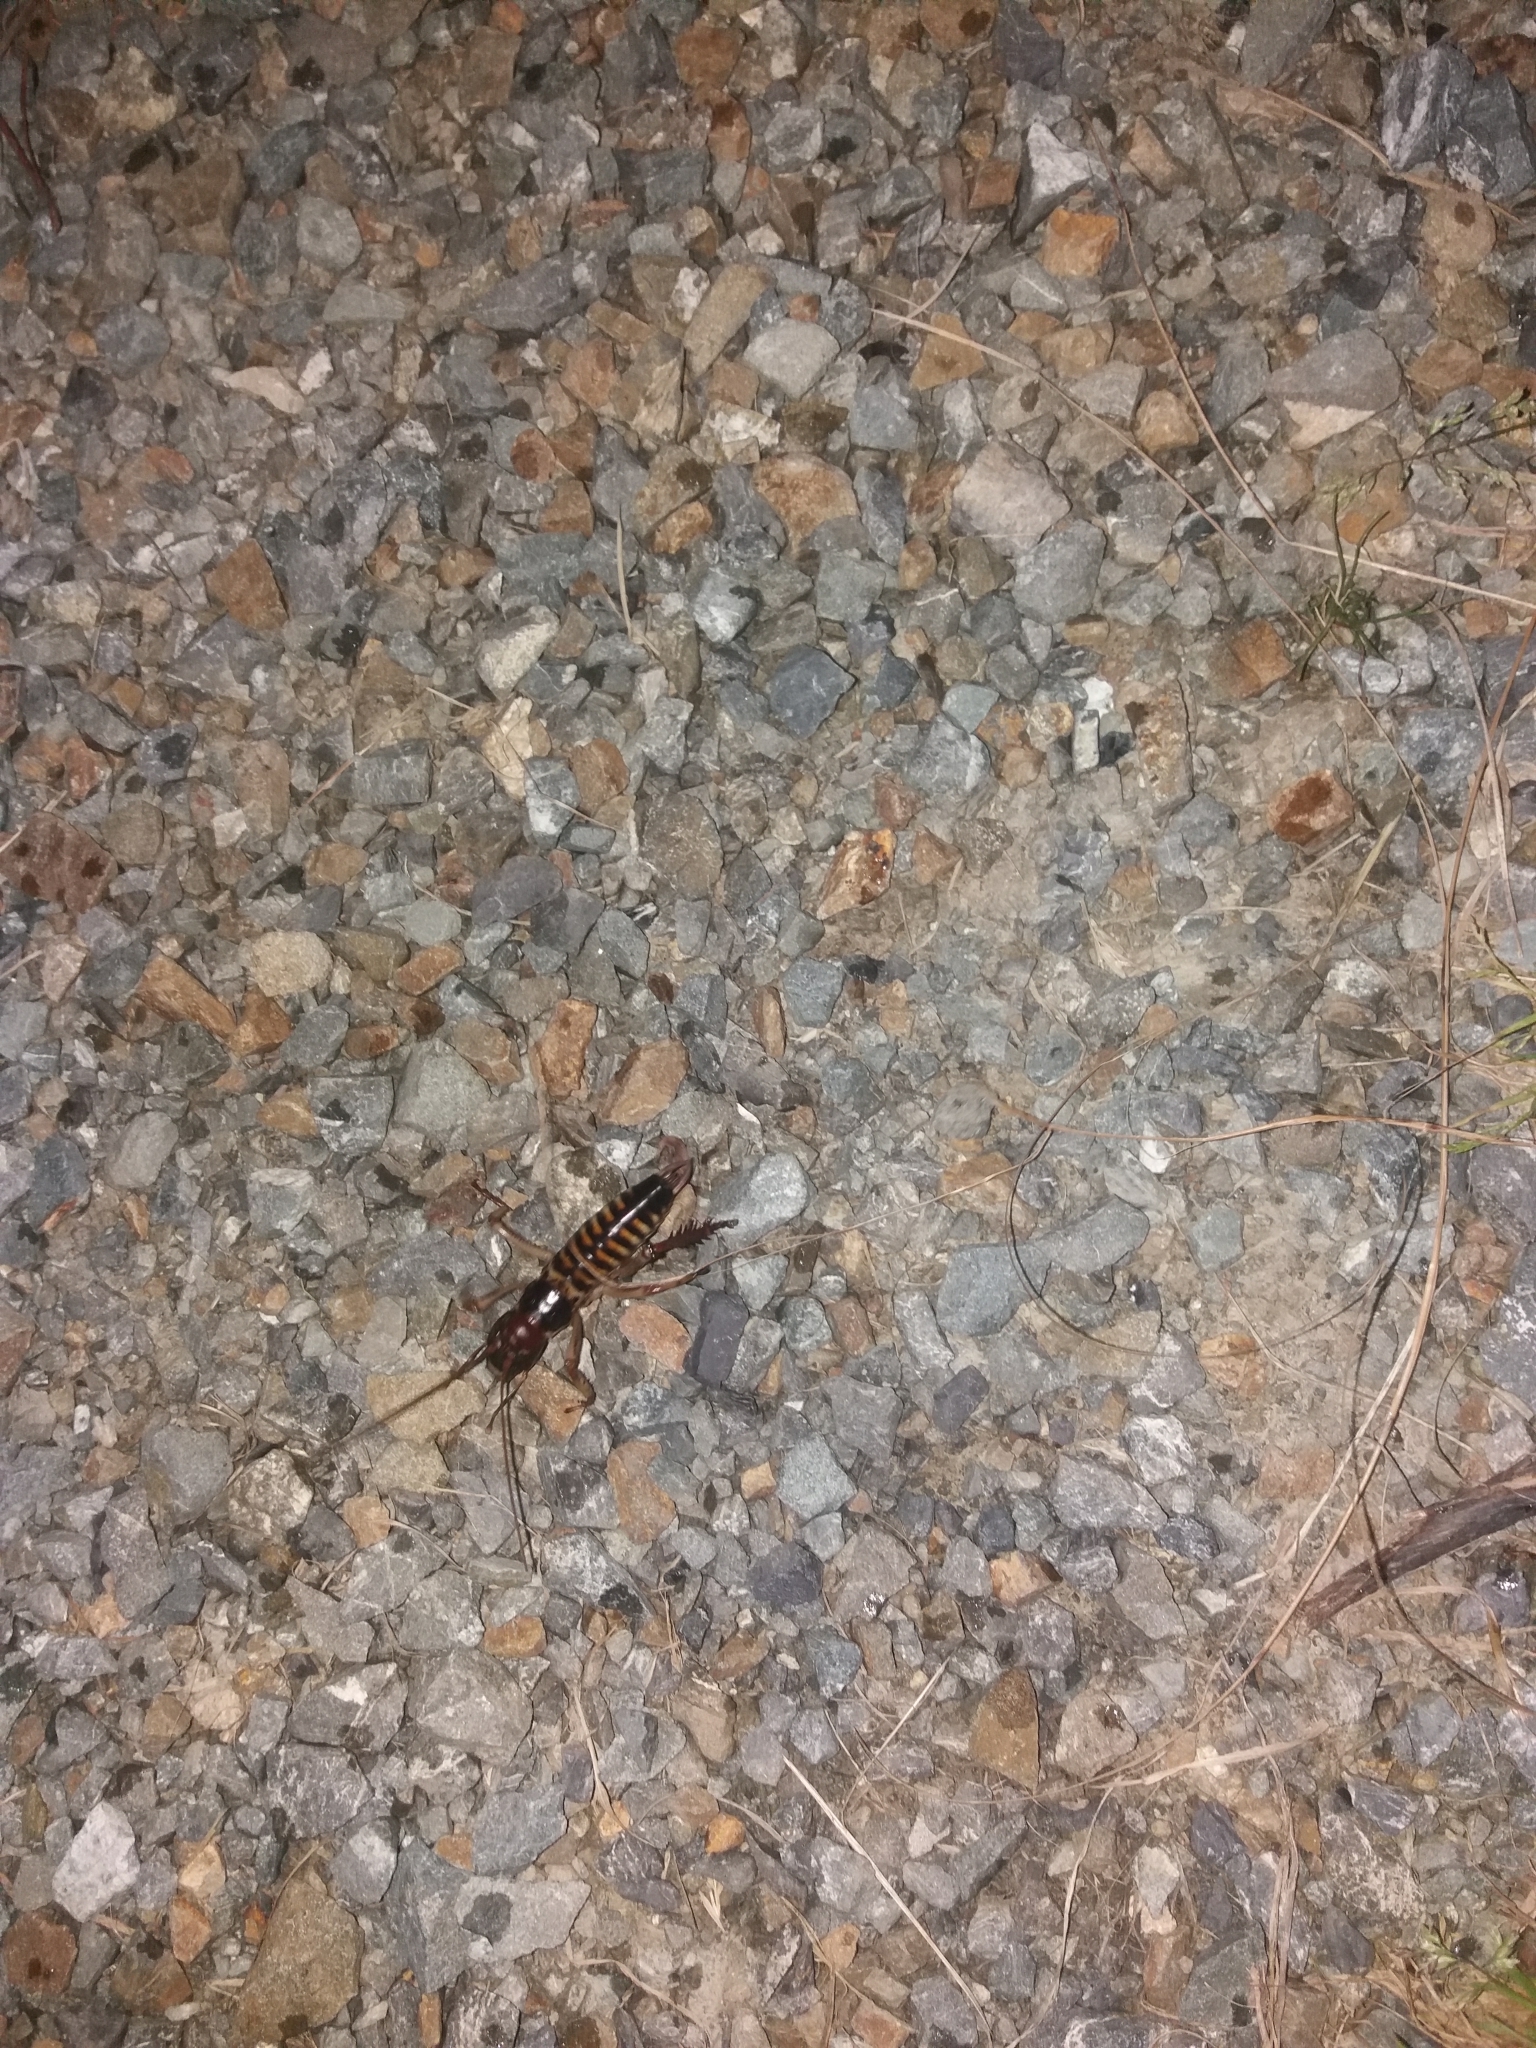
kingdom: Animalia
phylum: Arthropoda
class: Insecta
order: Orthoptera
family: Anostostomatidae
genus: Hemideina
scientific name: Hemideina crassidens
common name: Wellington tree weta
